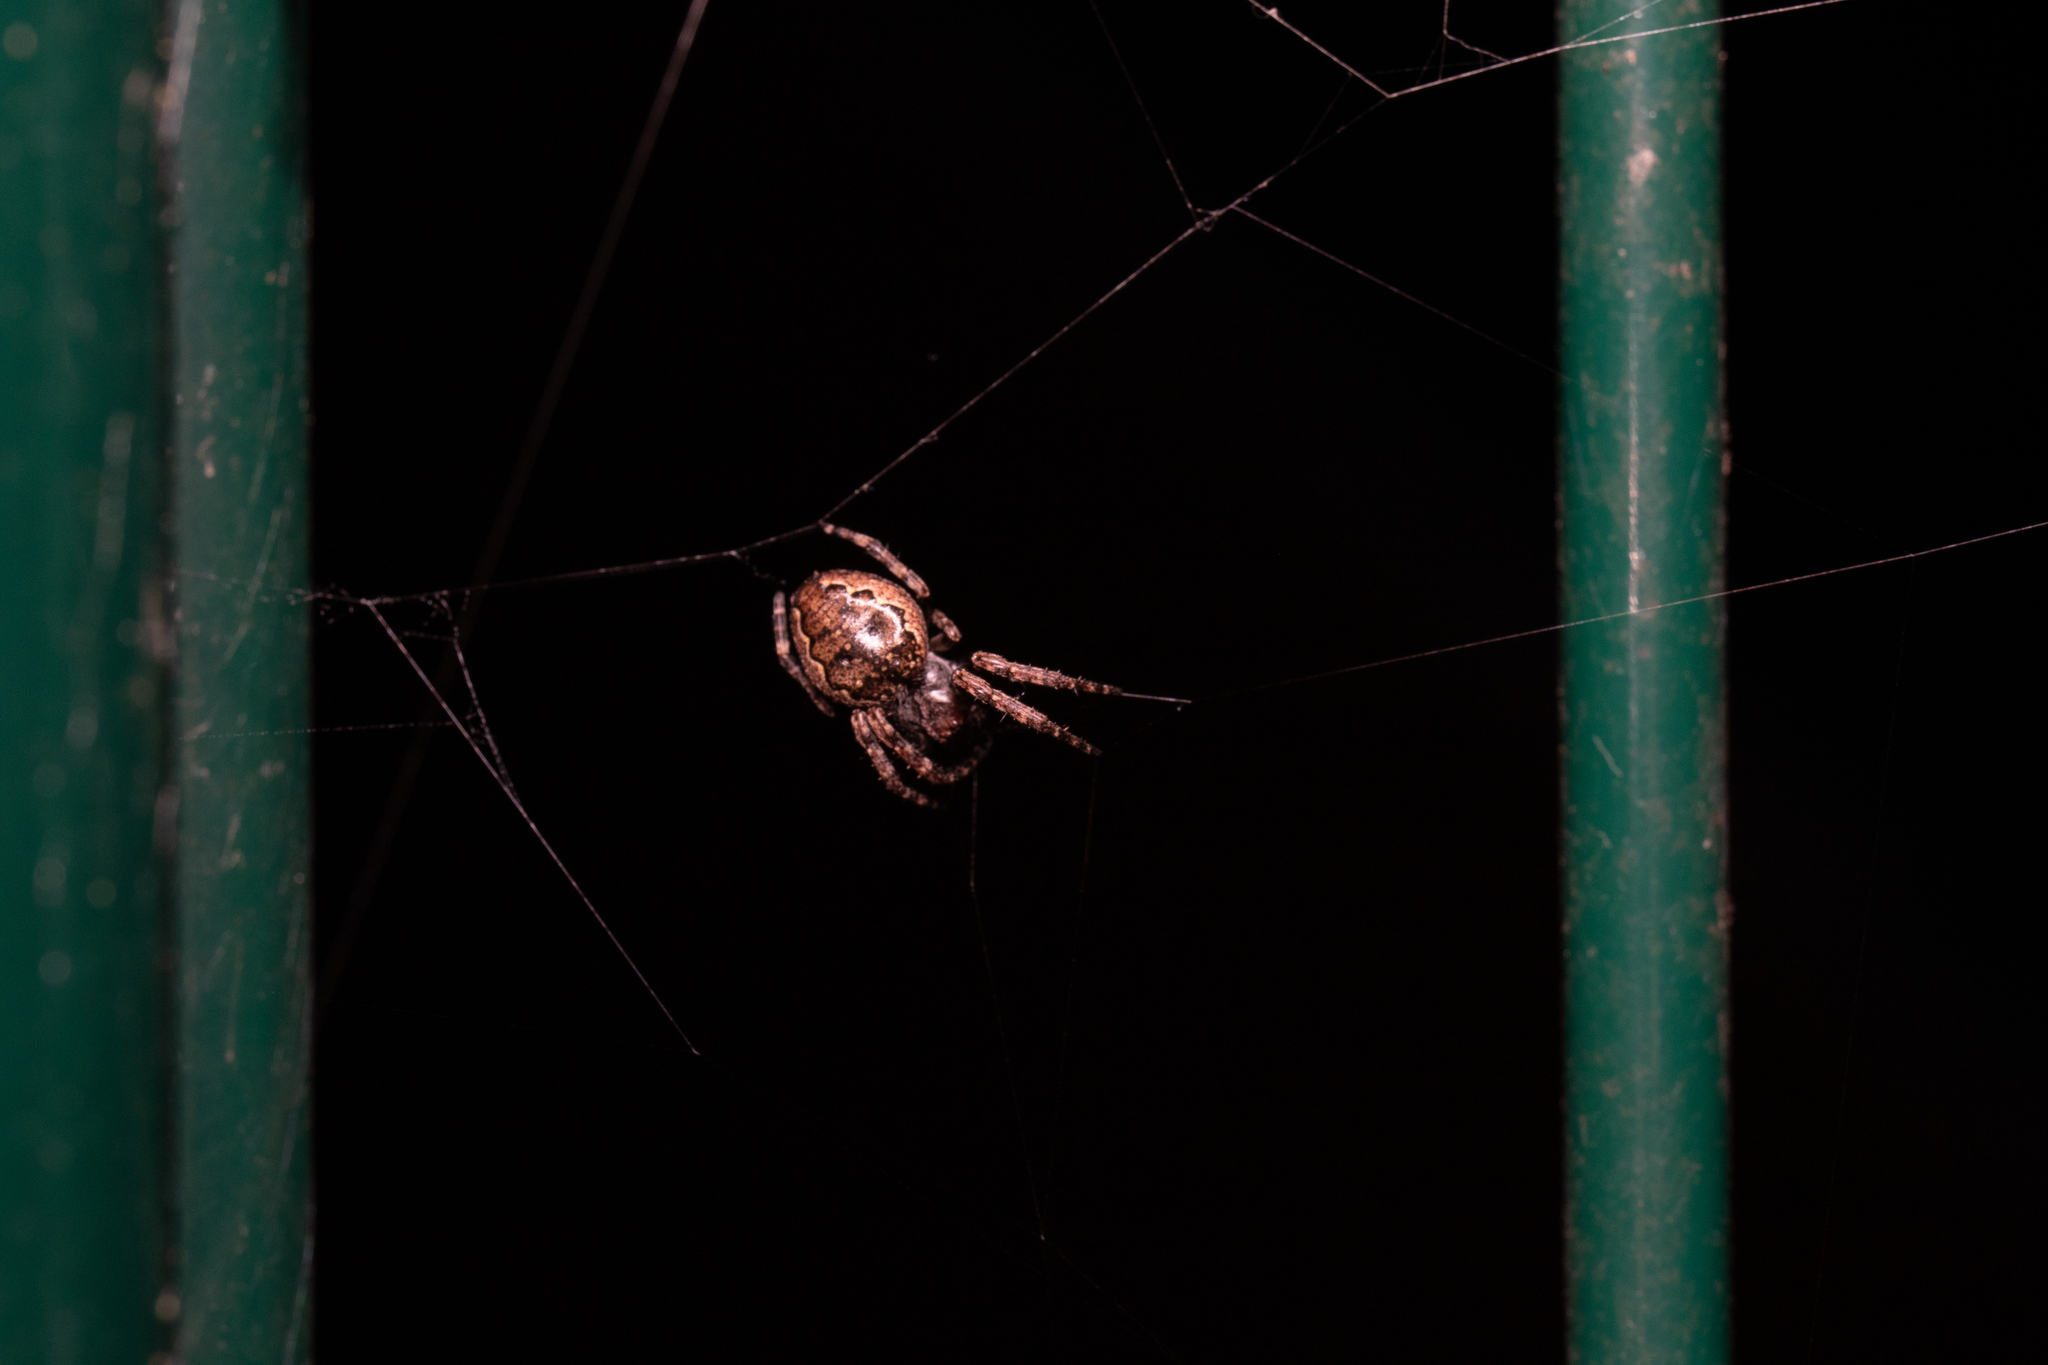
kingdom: Animalia
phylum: Arthropoda
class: Arachnida
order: Araneae
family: Araneidae
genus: Nuctenea
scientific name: Nuctenea umbratica
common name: Toad spider
